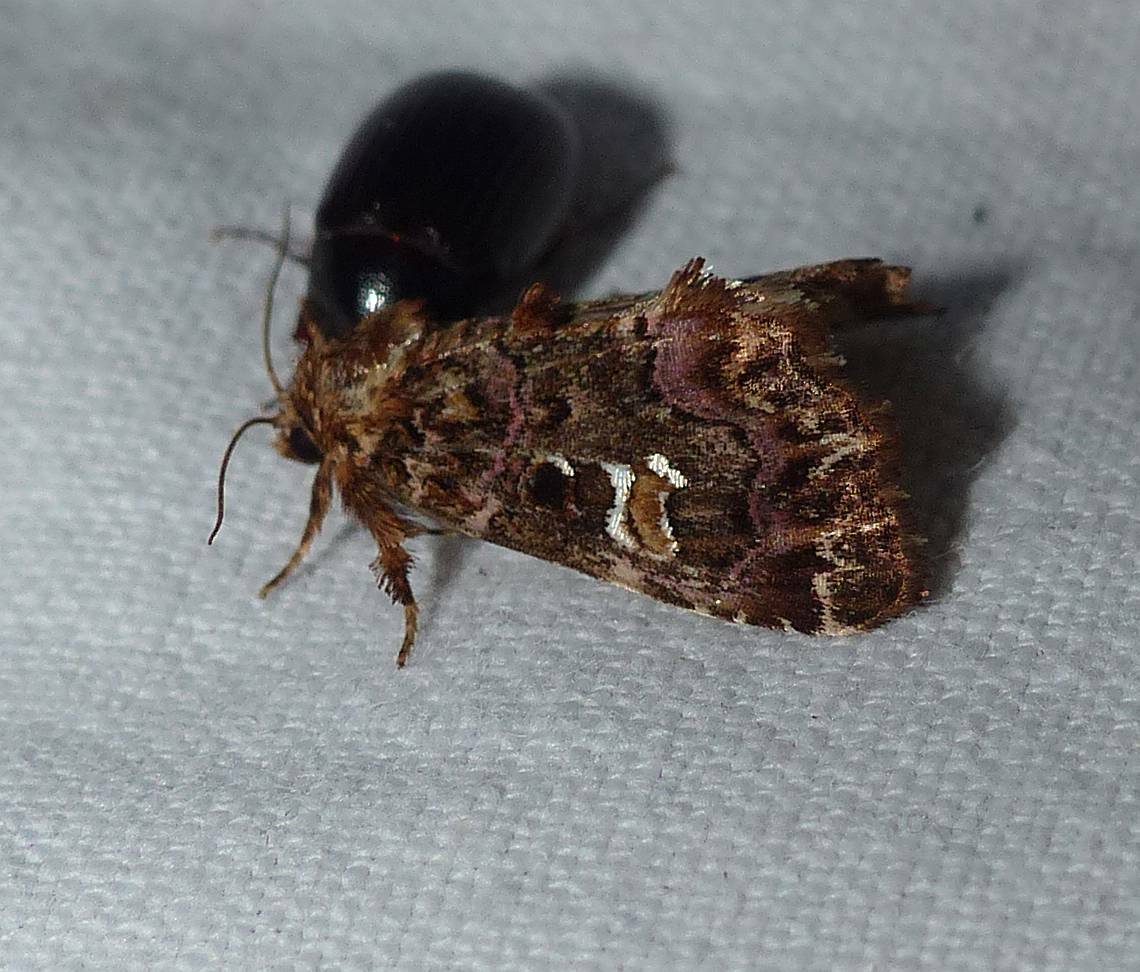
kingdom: Animalia
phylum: Arthropoda
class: Insecta
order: Lepidoptera
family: Noctuidae
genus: Callopistria
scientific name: Callopistria mollissima
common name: Pink-shaded fern moth
